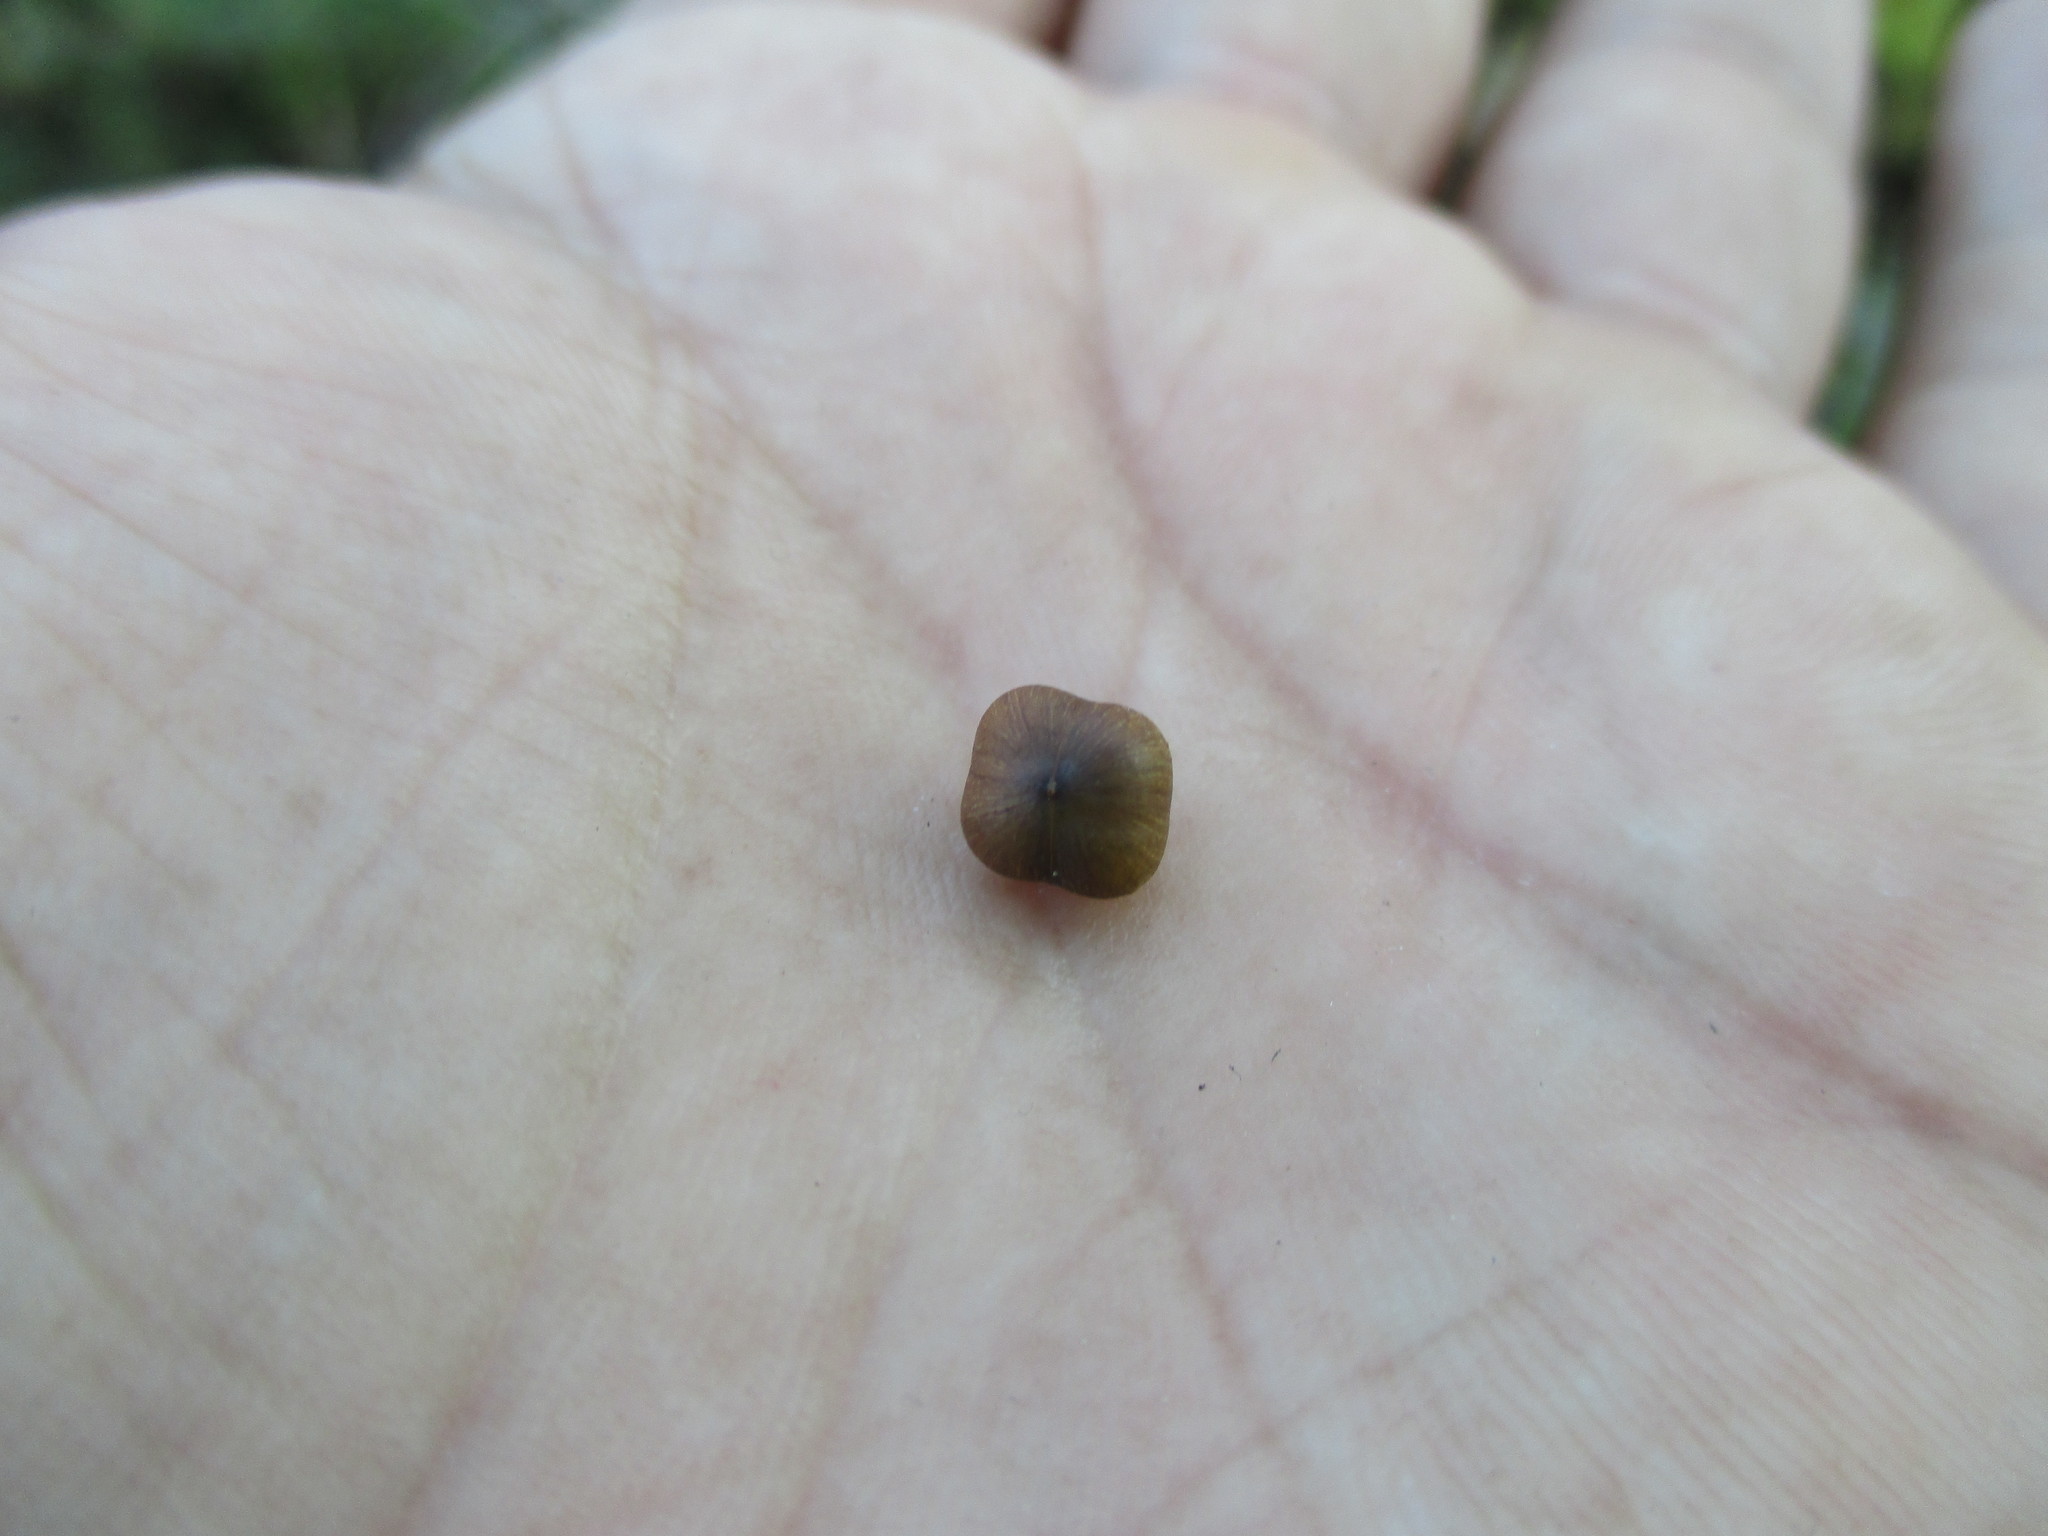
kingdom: Plantae
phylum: Tracheophyta
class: Magnoliopsida
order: Solanales
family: Convolvulaceae
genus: Ipomoea
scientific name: Ipomoea microsepala
